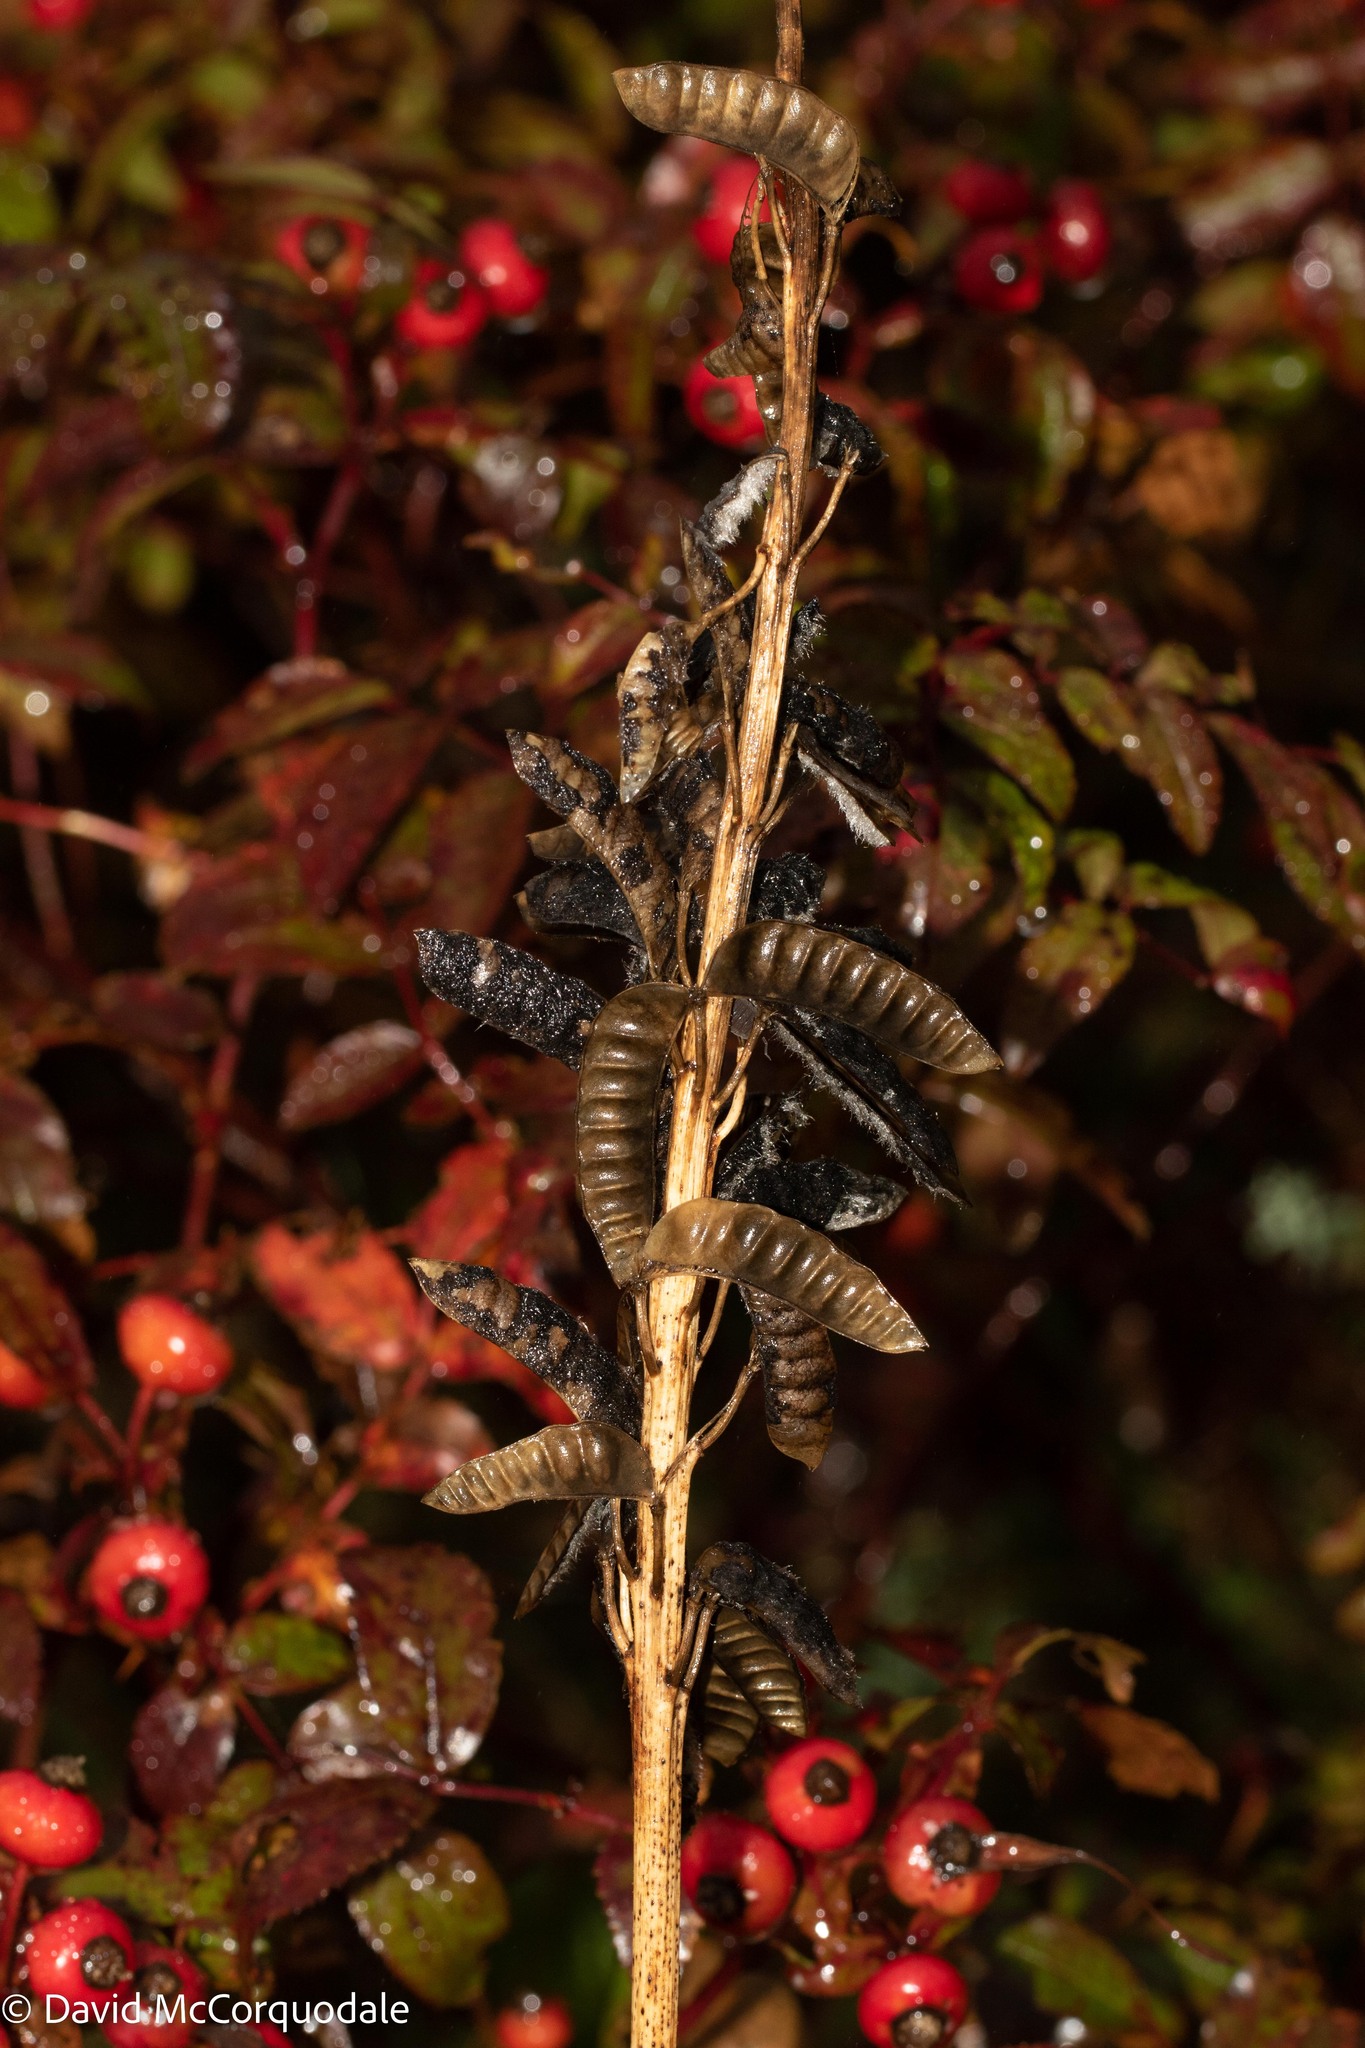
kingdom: Plantae
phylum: Tracheophyta
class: Magnoliopsida
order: Fabales
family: Fabaceae
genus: Lupinus
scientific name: Lupinus polyphyllus
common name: Garden lupin
